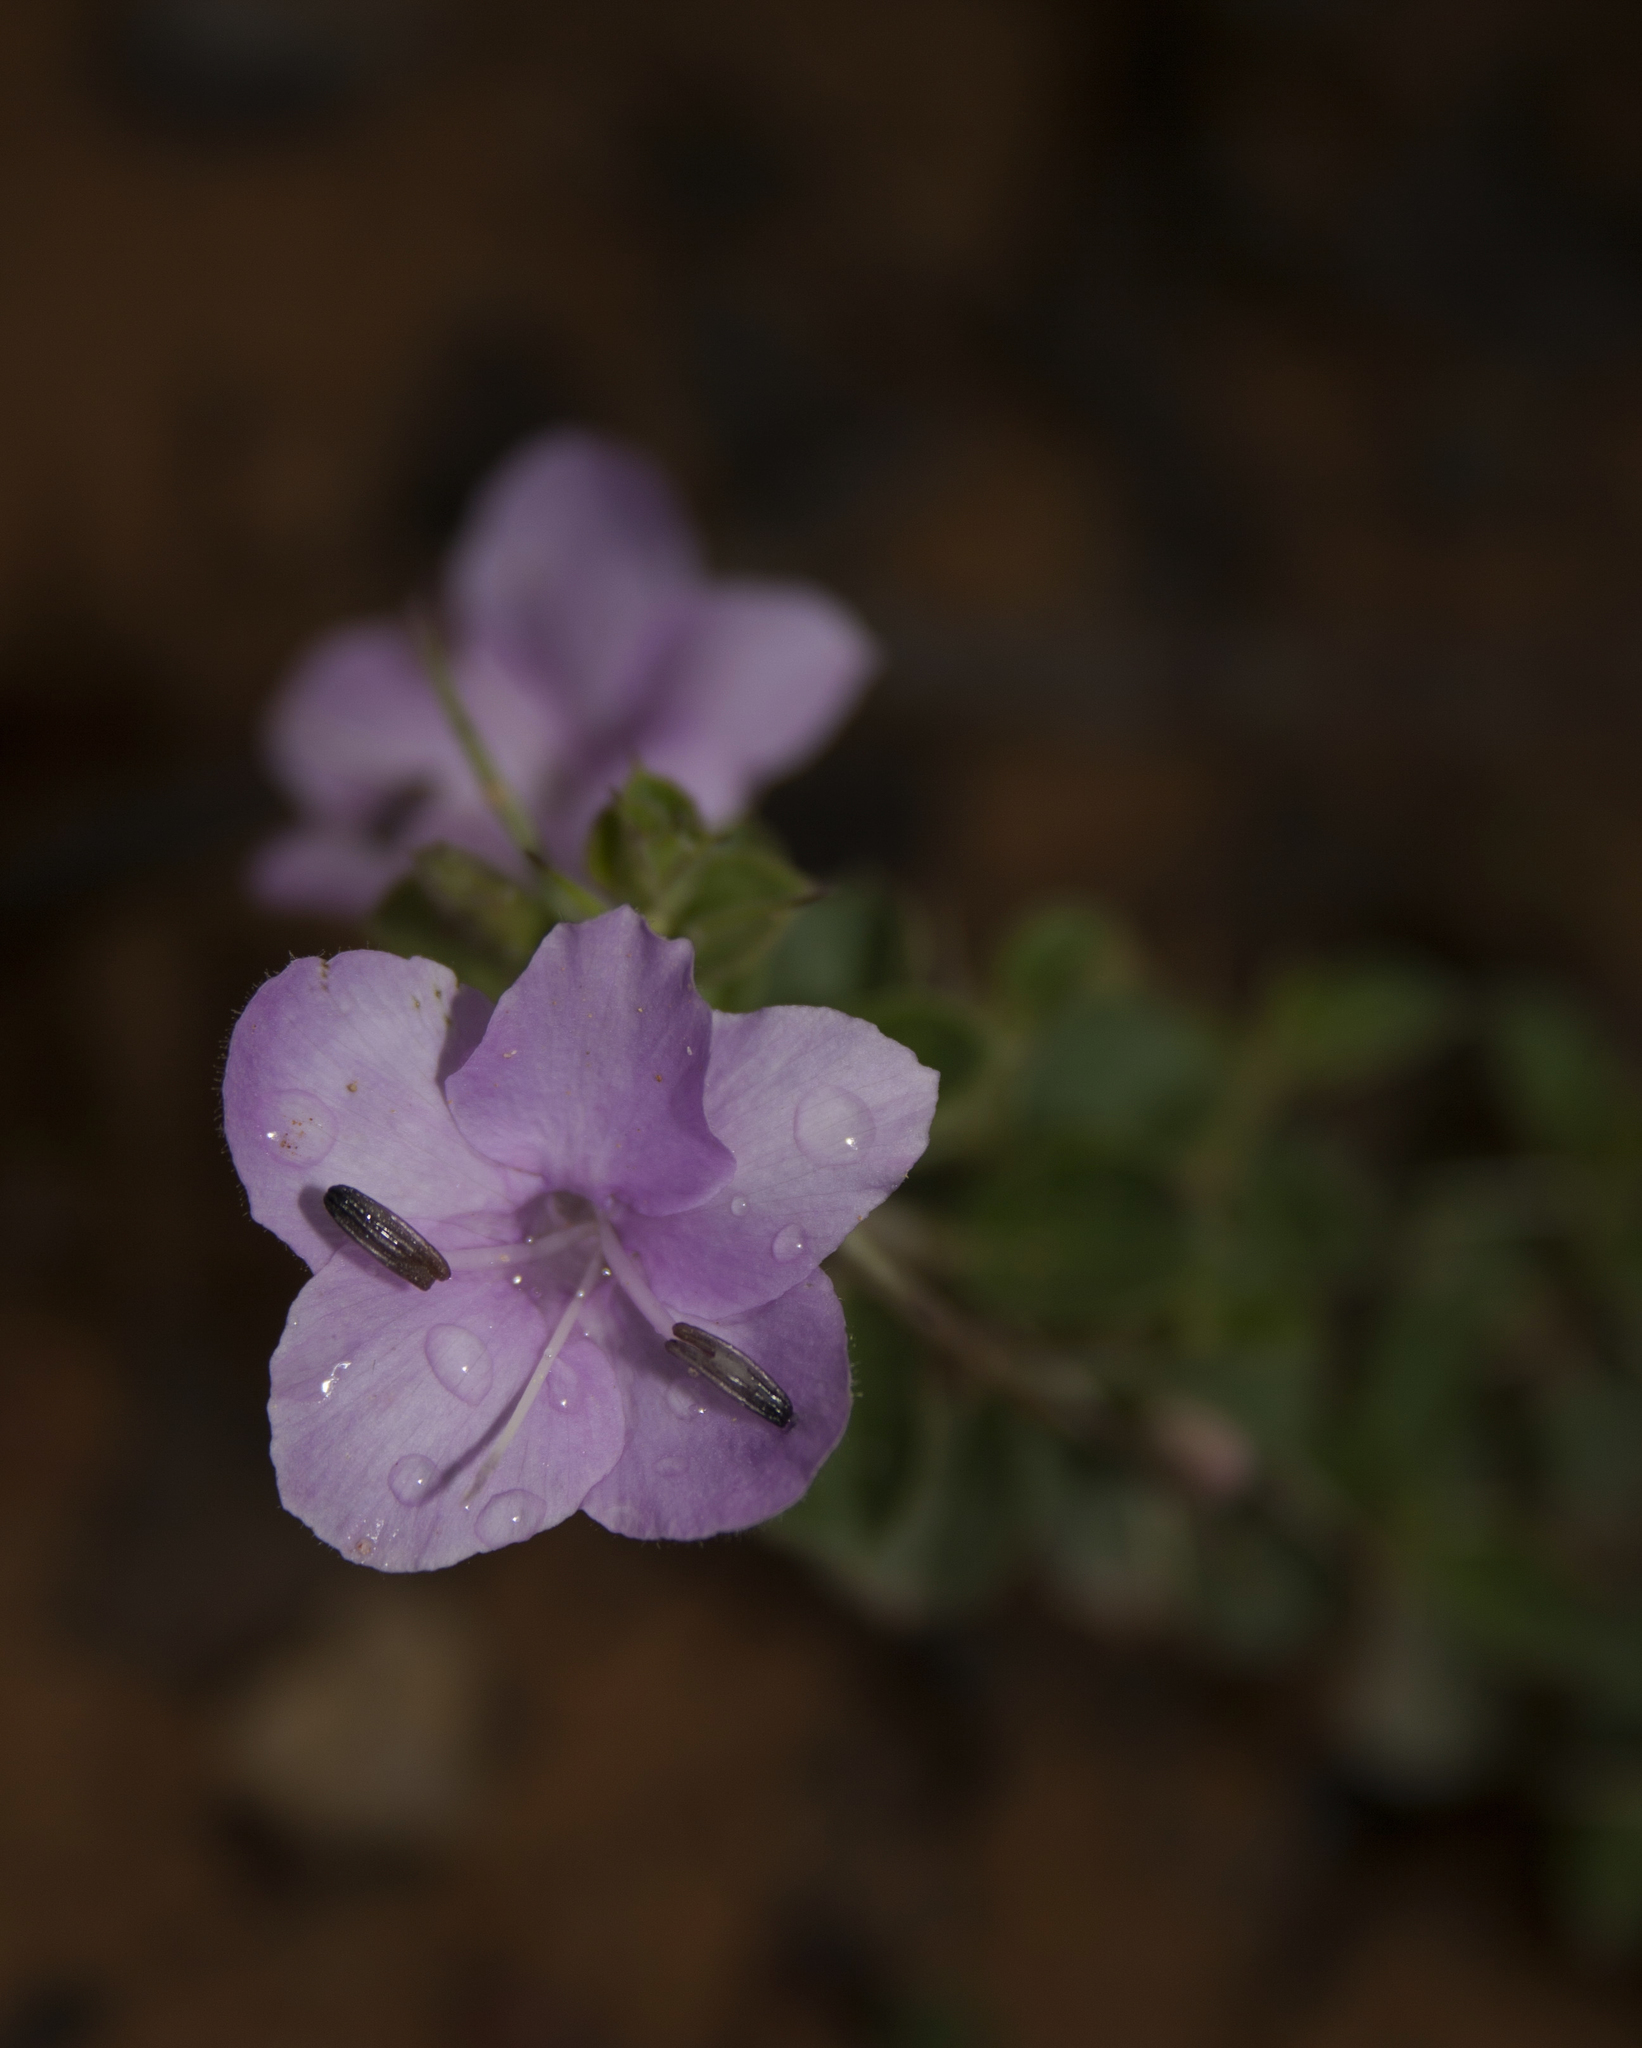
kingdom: Plantae
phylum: Tracheophyta
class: Magnoliopsida
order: Lamiales
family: Acanthaceae
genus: Barleria
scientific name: Barleria mysorensis
